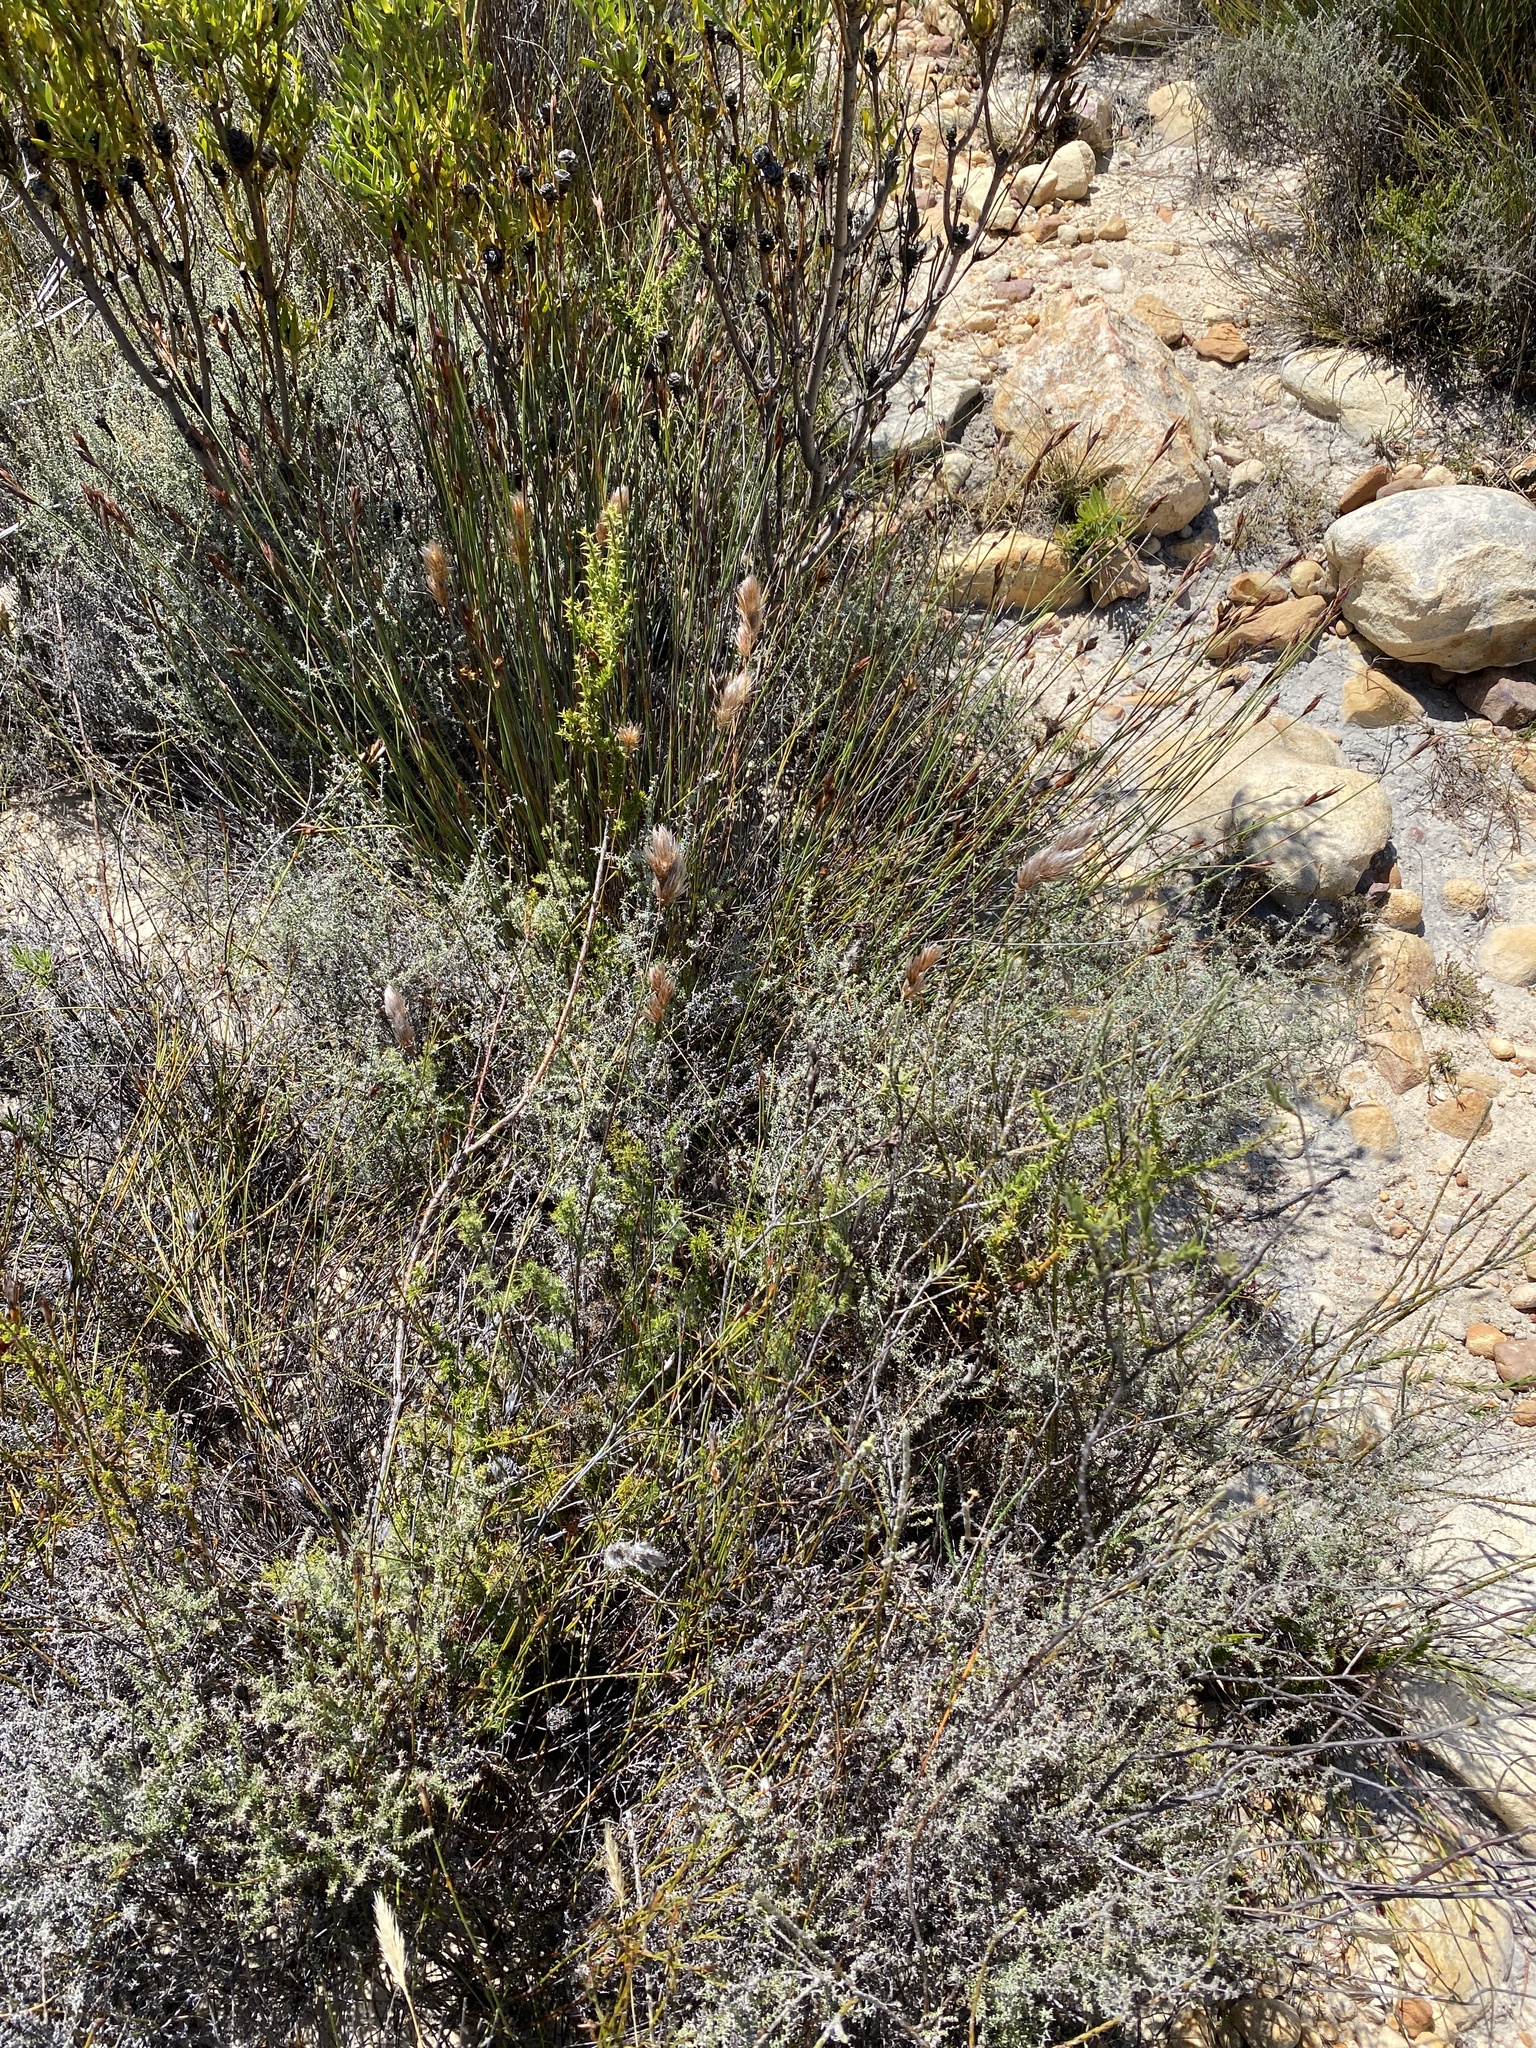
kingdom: Plantae
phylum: Tracheophyta
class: Liliopsida
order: Poales
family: Restionaceae
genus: Thamnochortus
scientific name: Thamnochortus acuminatus
